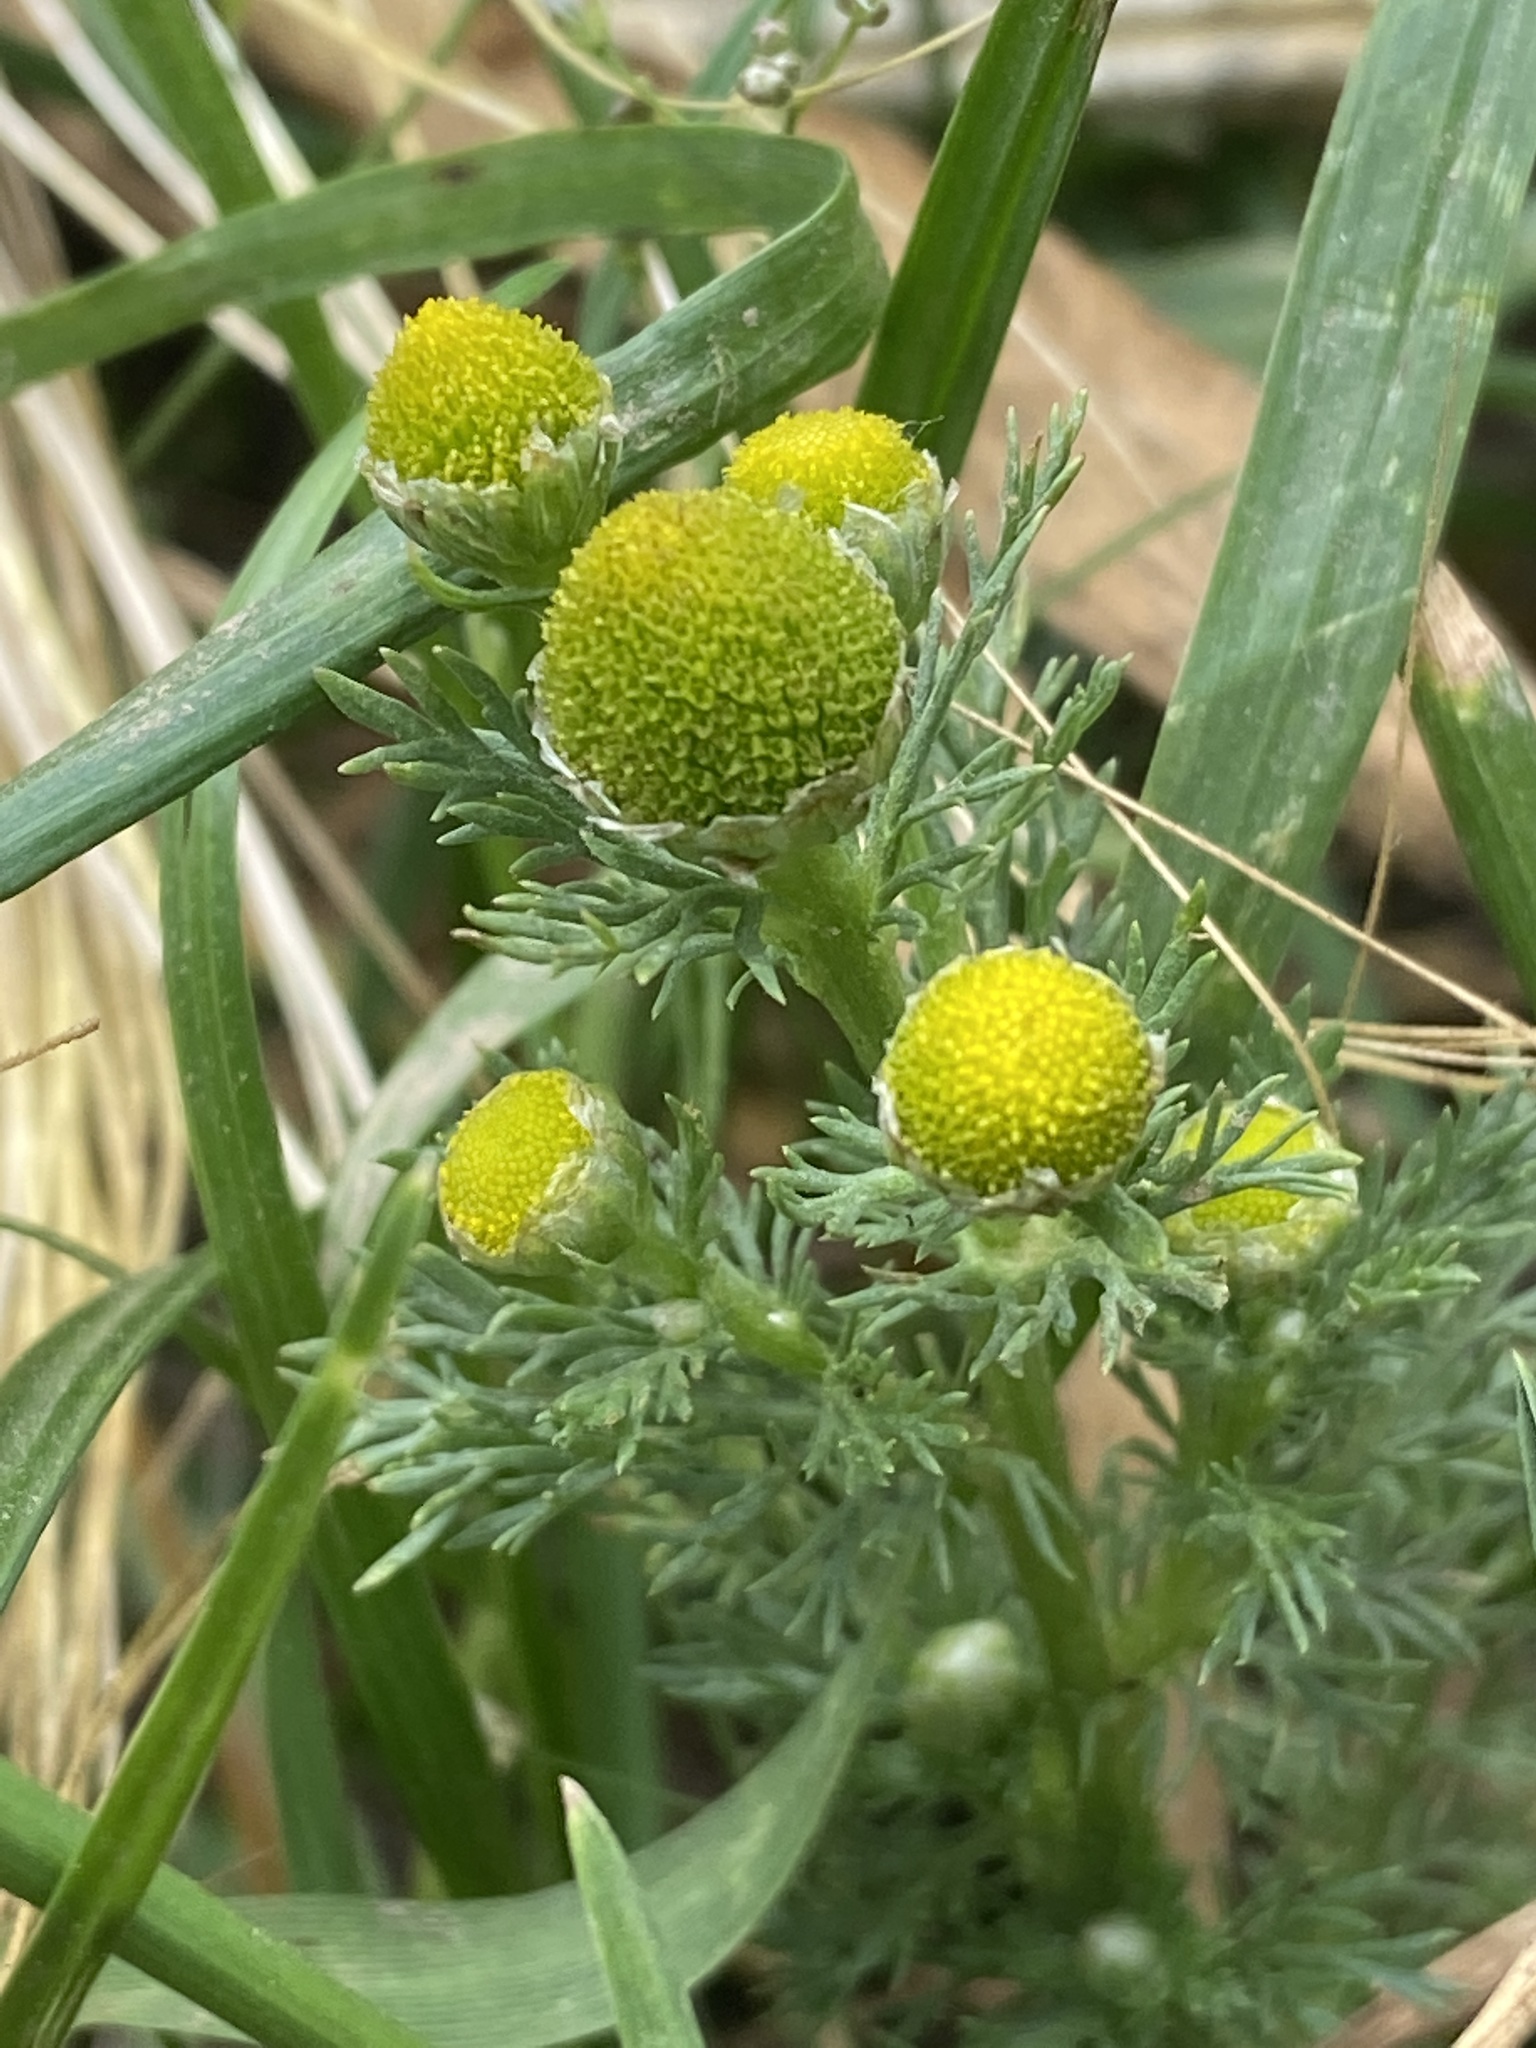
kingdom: Plantae
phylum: Tracheophyta
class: Magnoliopsida
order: Asterales
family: Asteraceae
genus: Matricaria
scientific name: Matricaria discoidea
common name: Disc mayweed
